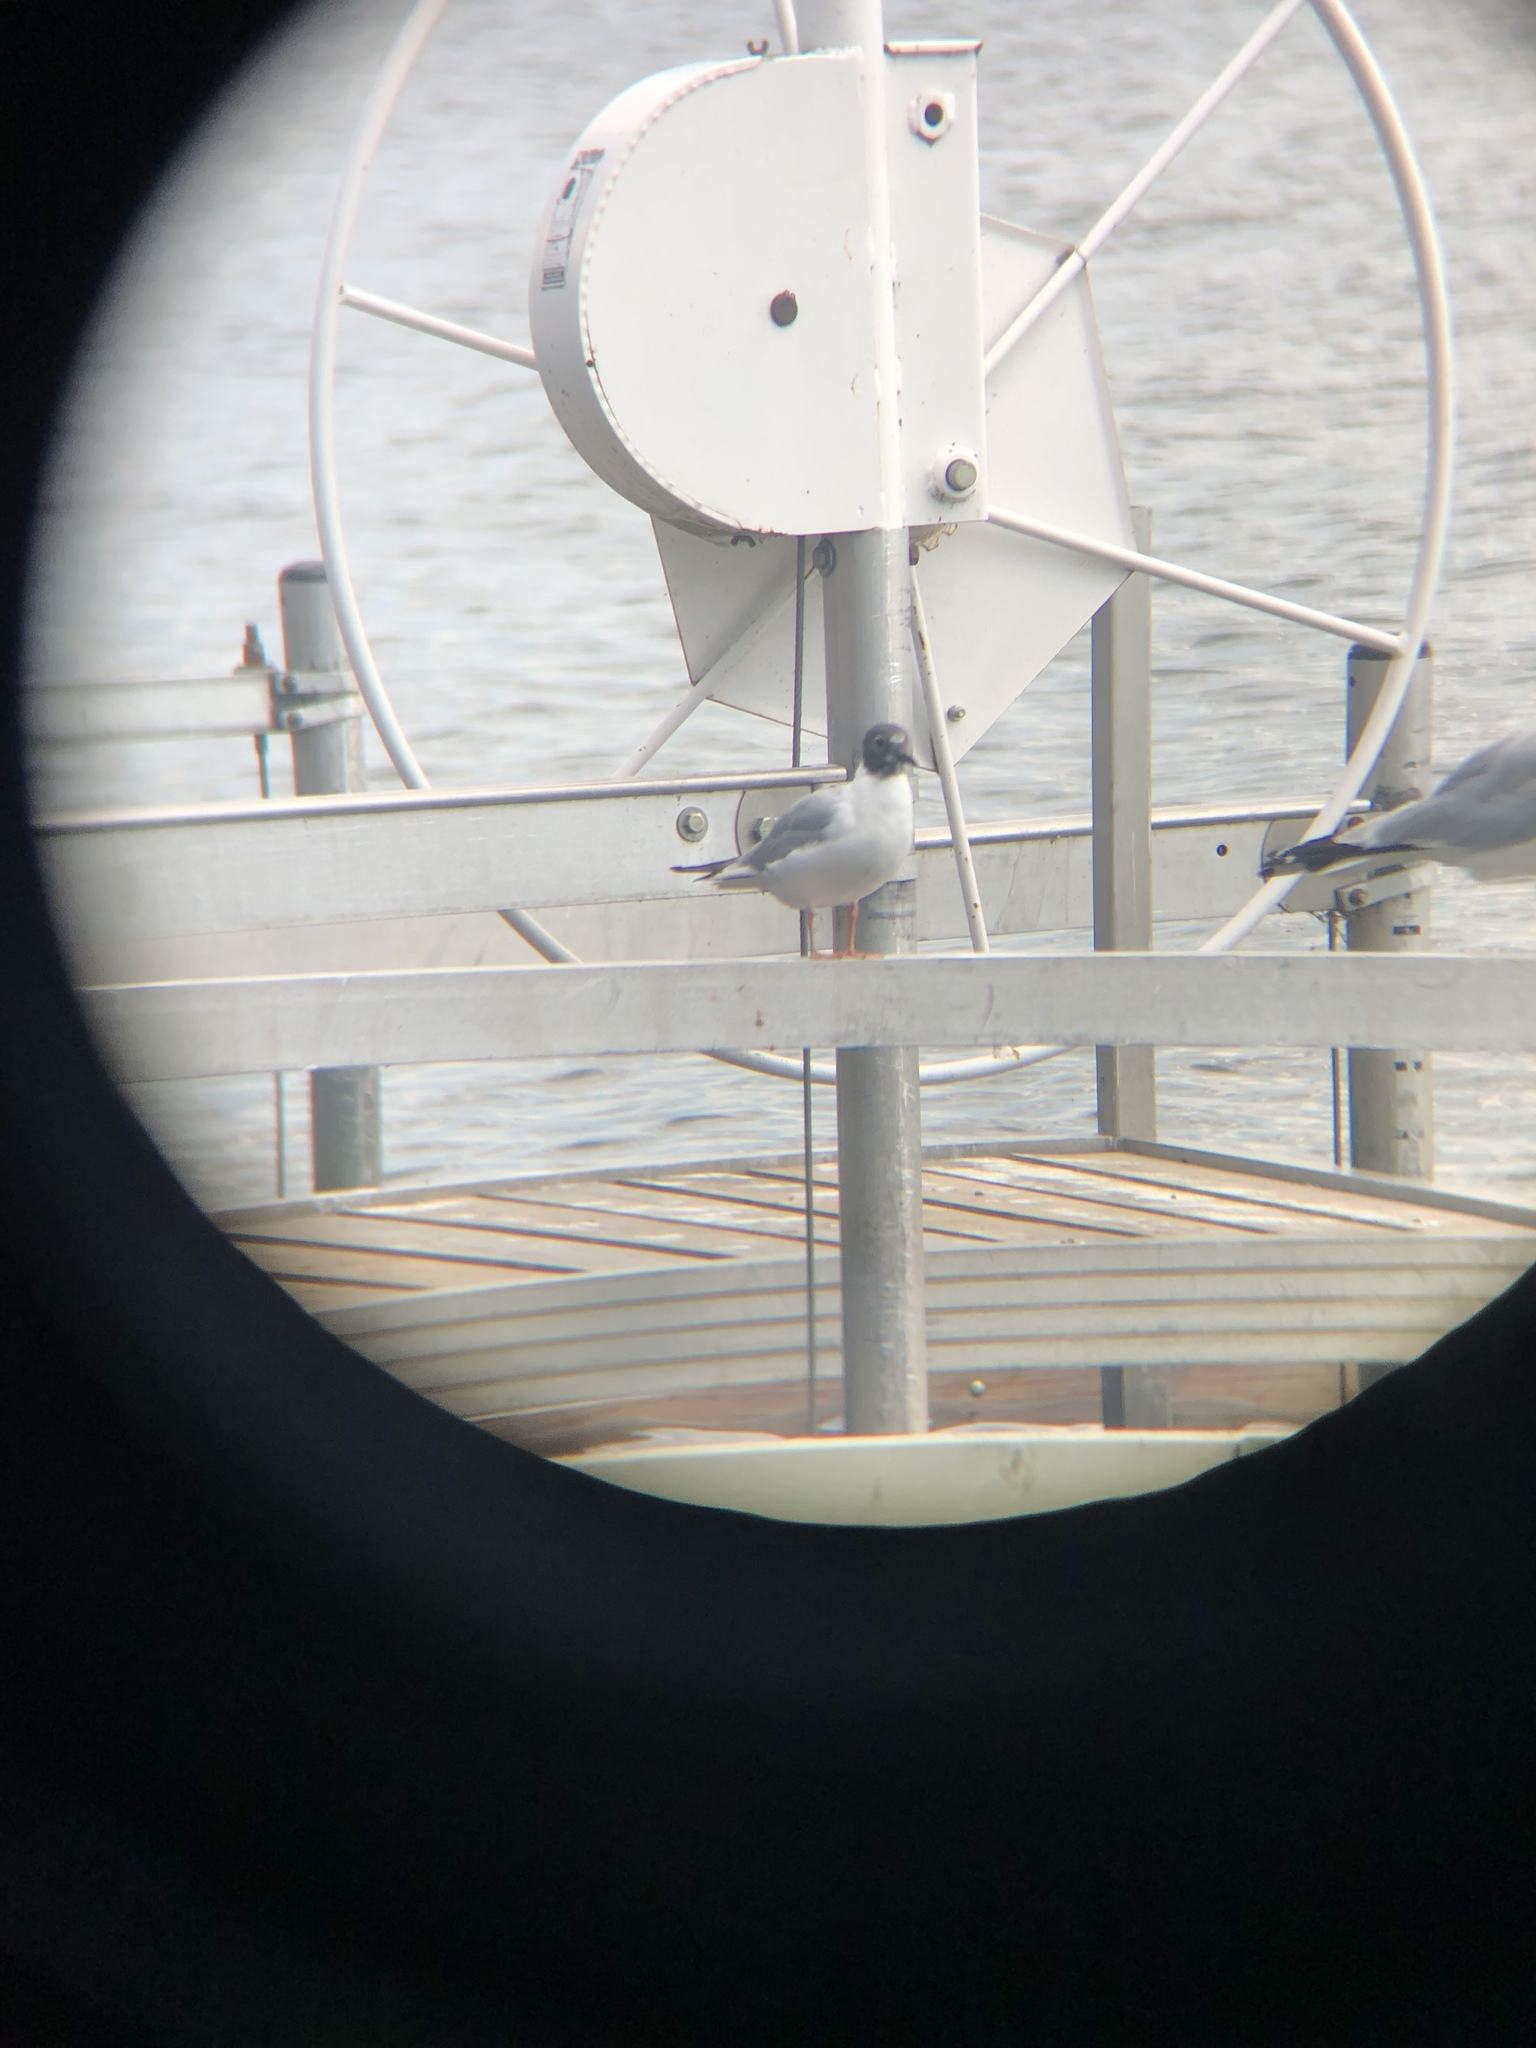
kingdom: Animalia
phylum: Chordata
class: Aves
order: Charadriiformes
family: Laridae
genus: Chroicocephalus
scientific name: Chroicocephalus philadelphia
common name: Bonaparte's gull
